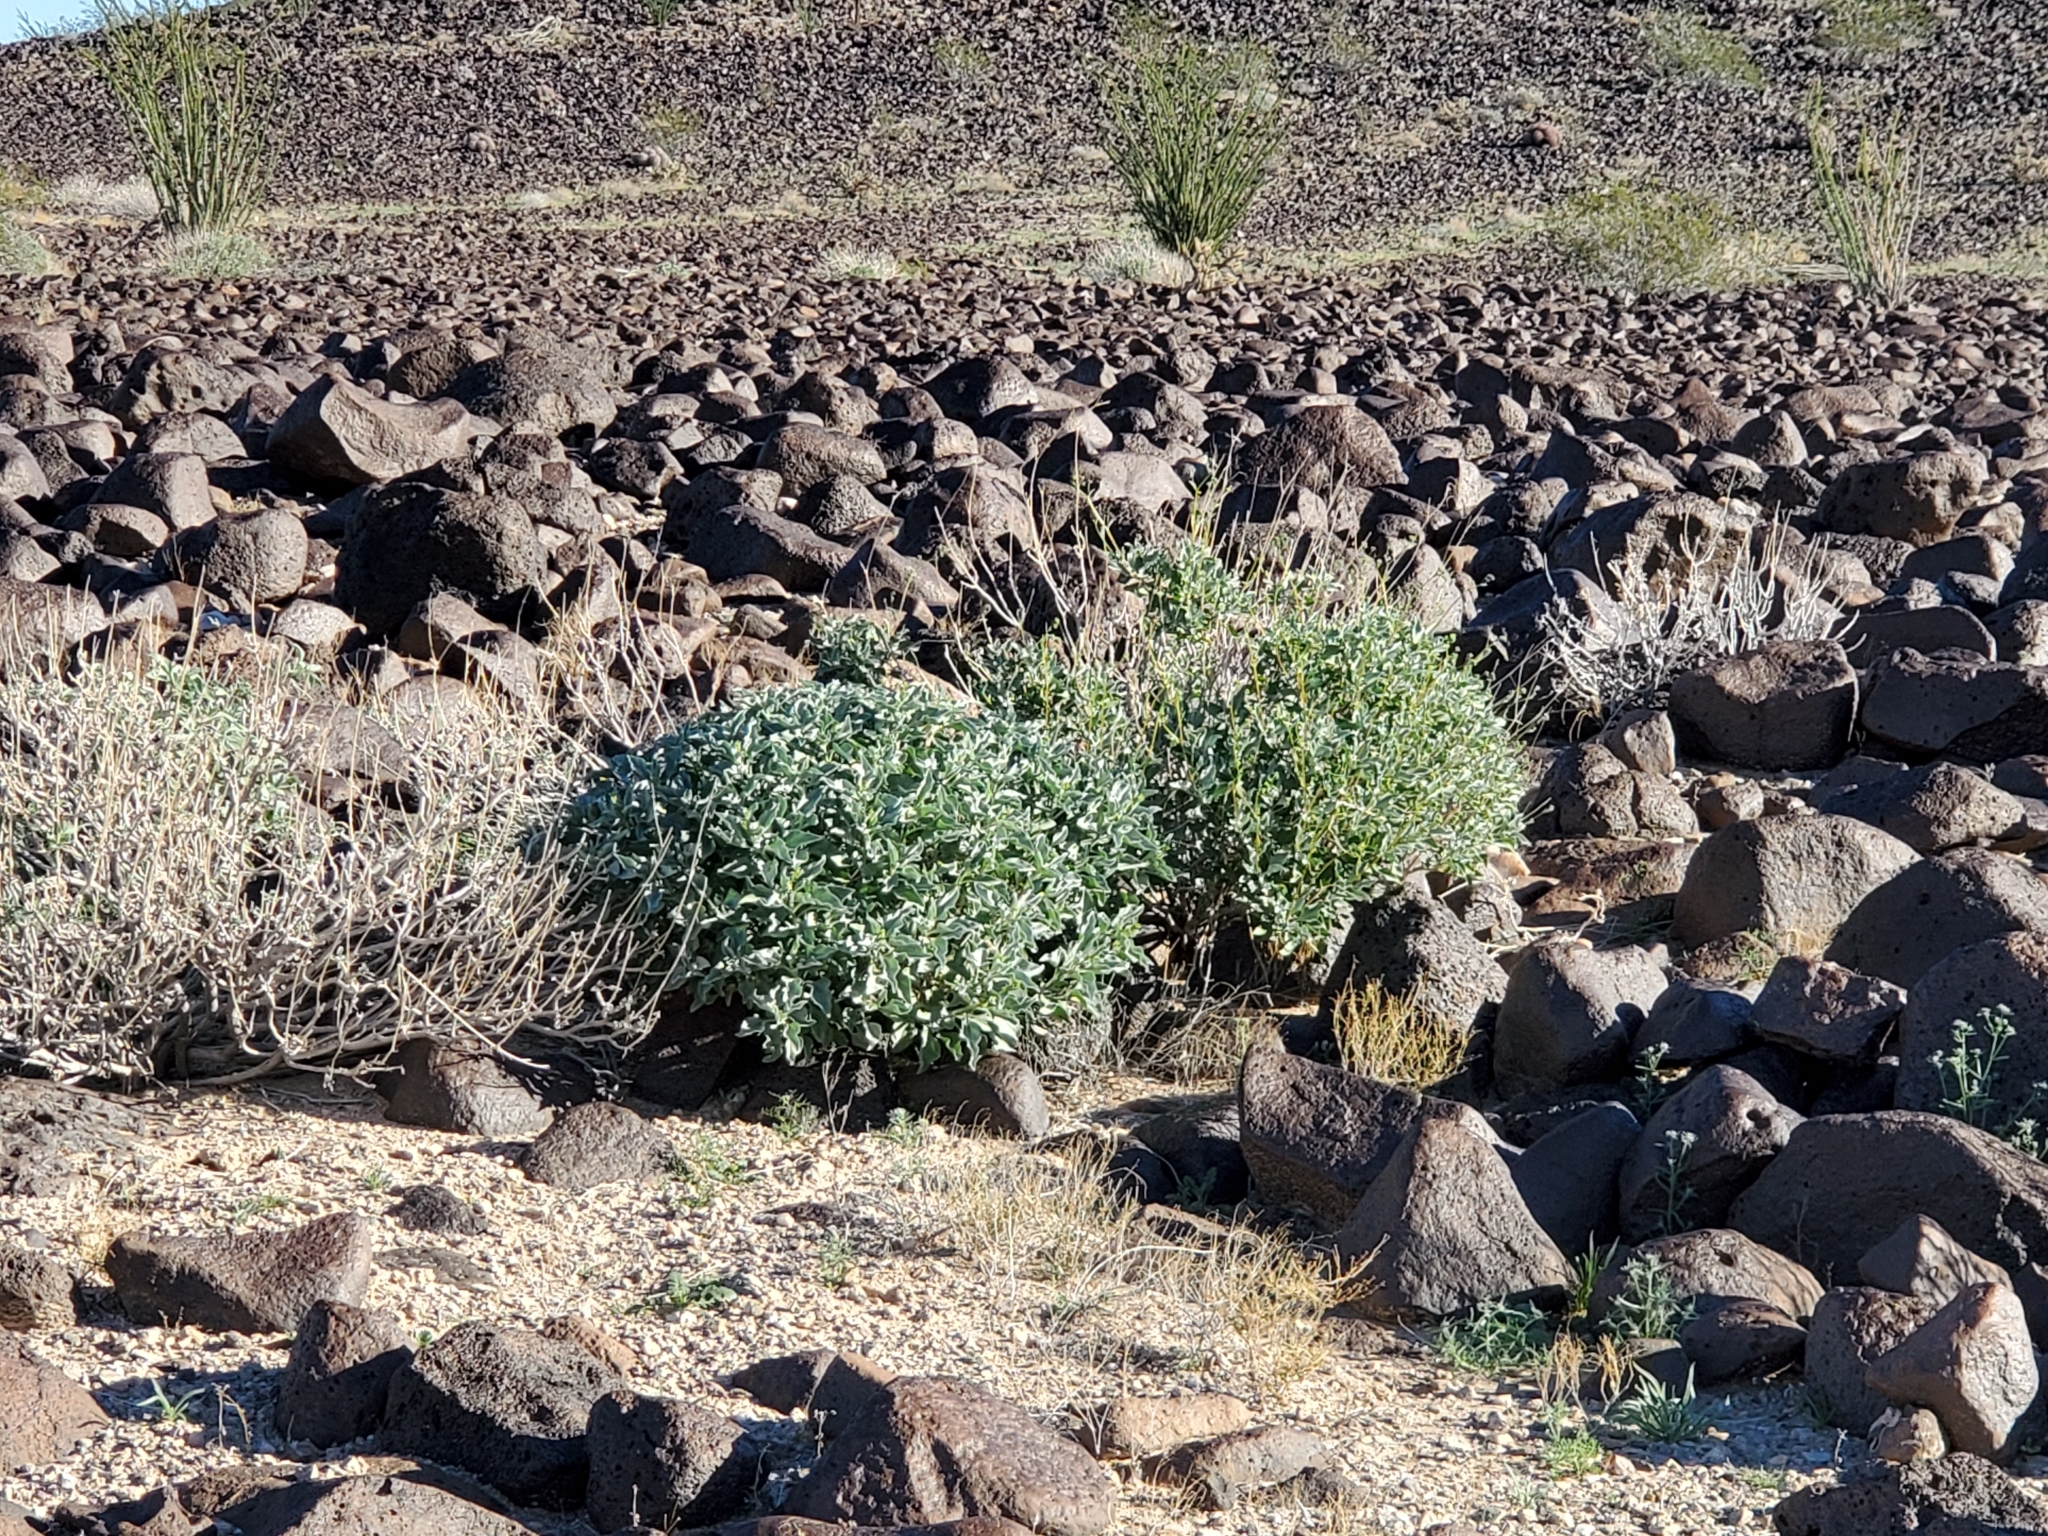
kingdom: Plantae
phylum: Tracheophyta
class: Magnoliopsida
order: Asterales
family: Asteraceae
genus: Encelia
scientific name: Encelia farinosa
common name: Brittlebush
